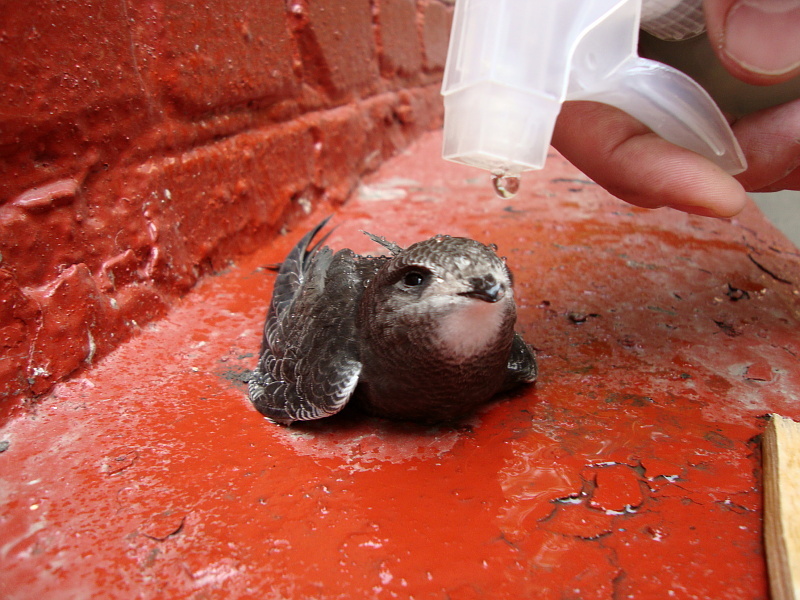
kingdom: Animalia
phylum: Chordata
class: Aves
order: Apodiformes
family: Apodidae
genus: Apus
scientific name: Apus apus
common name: Common swift
